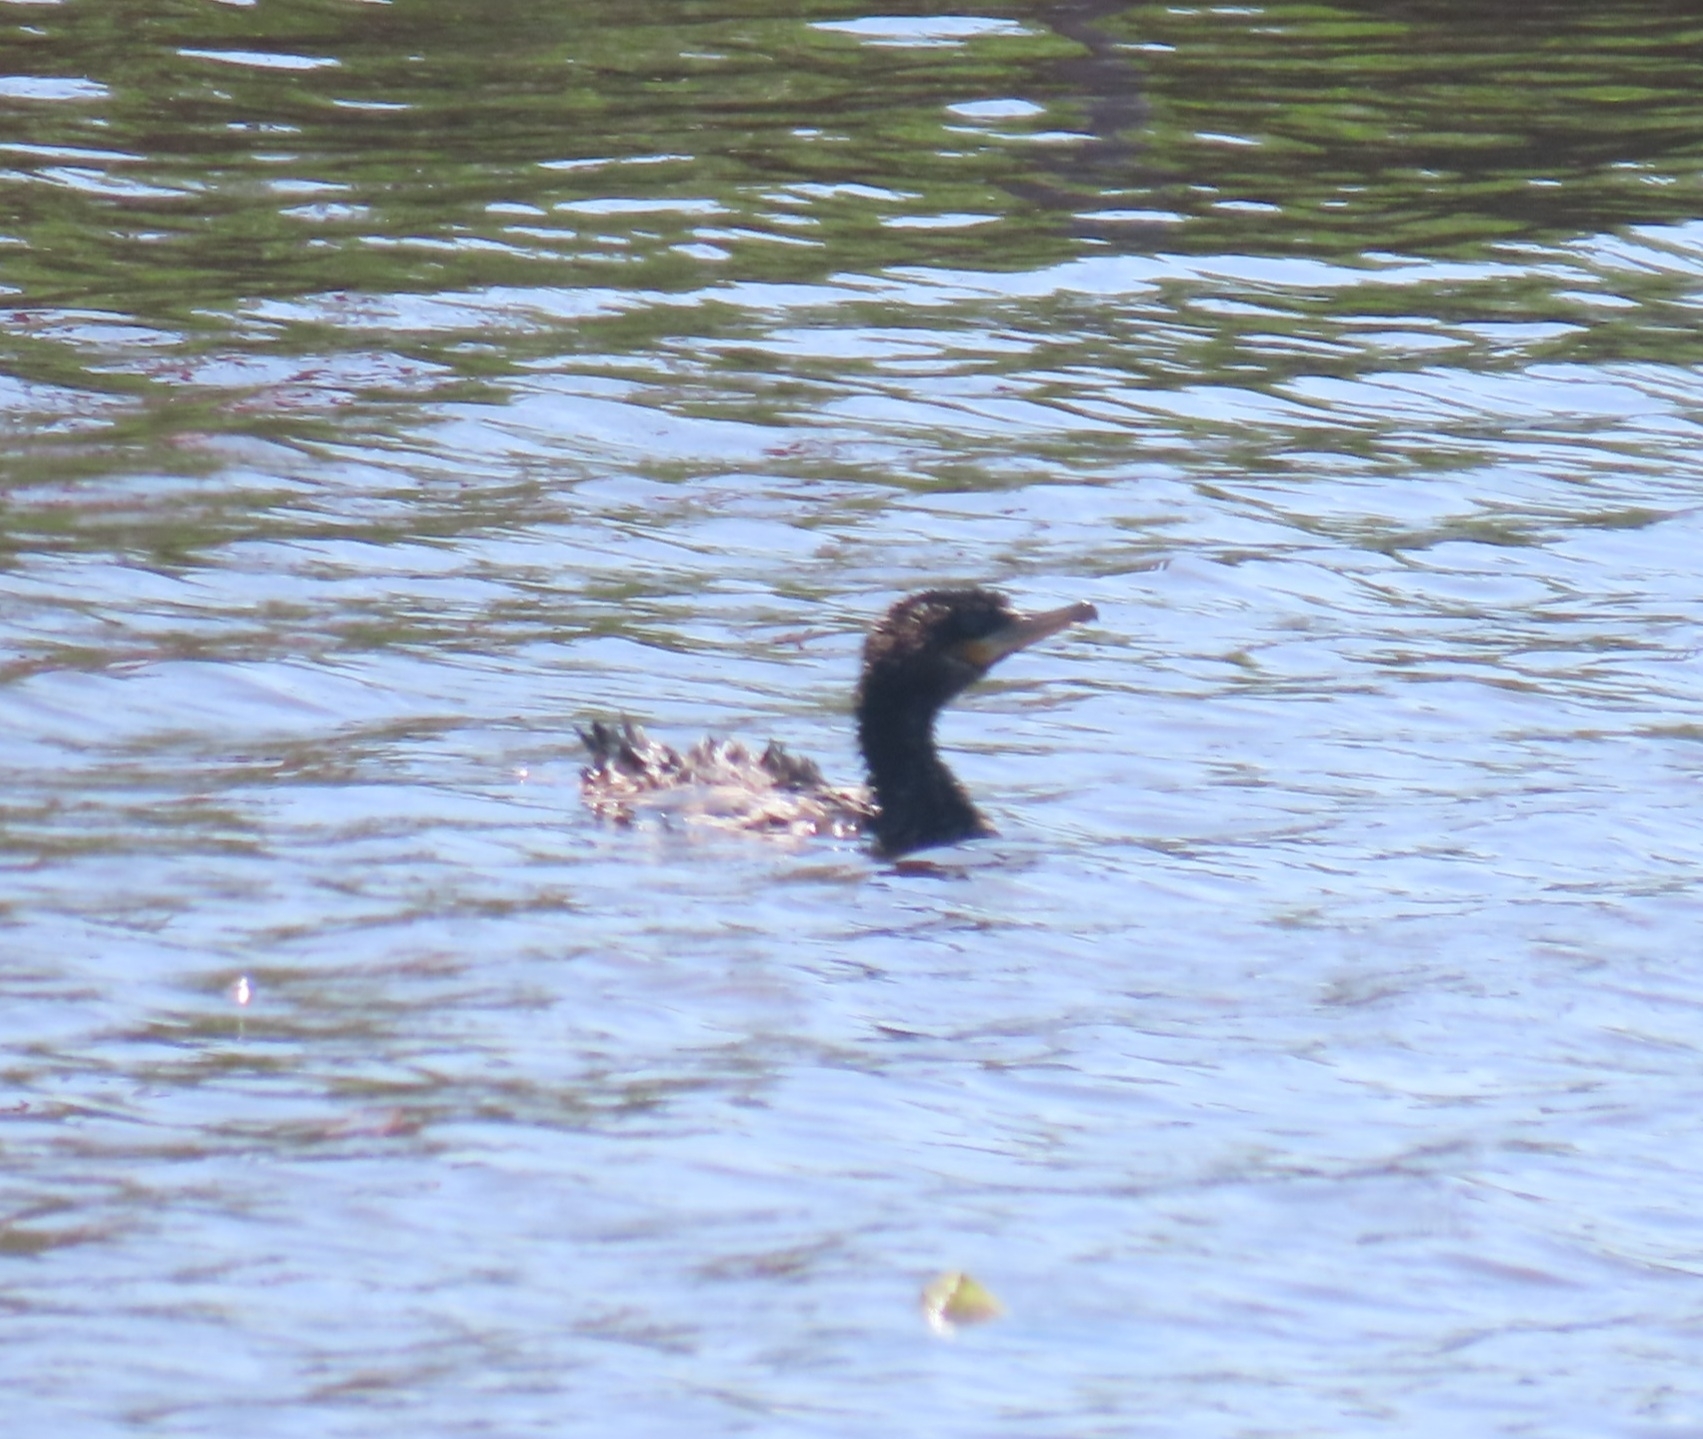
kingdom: Animalia
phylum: Chordata
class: Aves
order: Suliformes
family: Phalacrocoracidae
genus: Phalacrocorax
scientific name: Phalacrocorax brasilianus
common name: Neotropic cormorant
